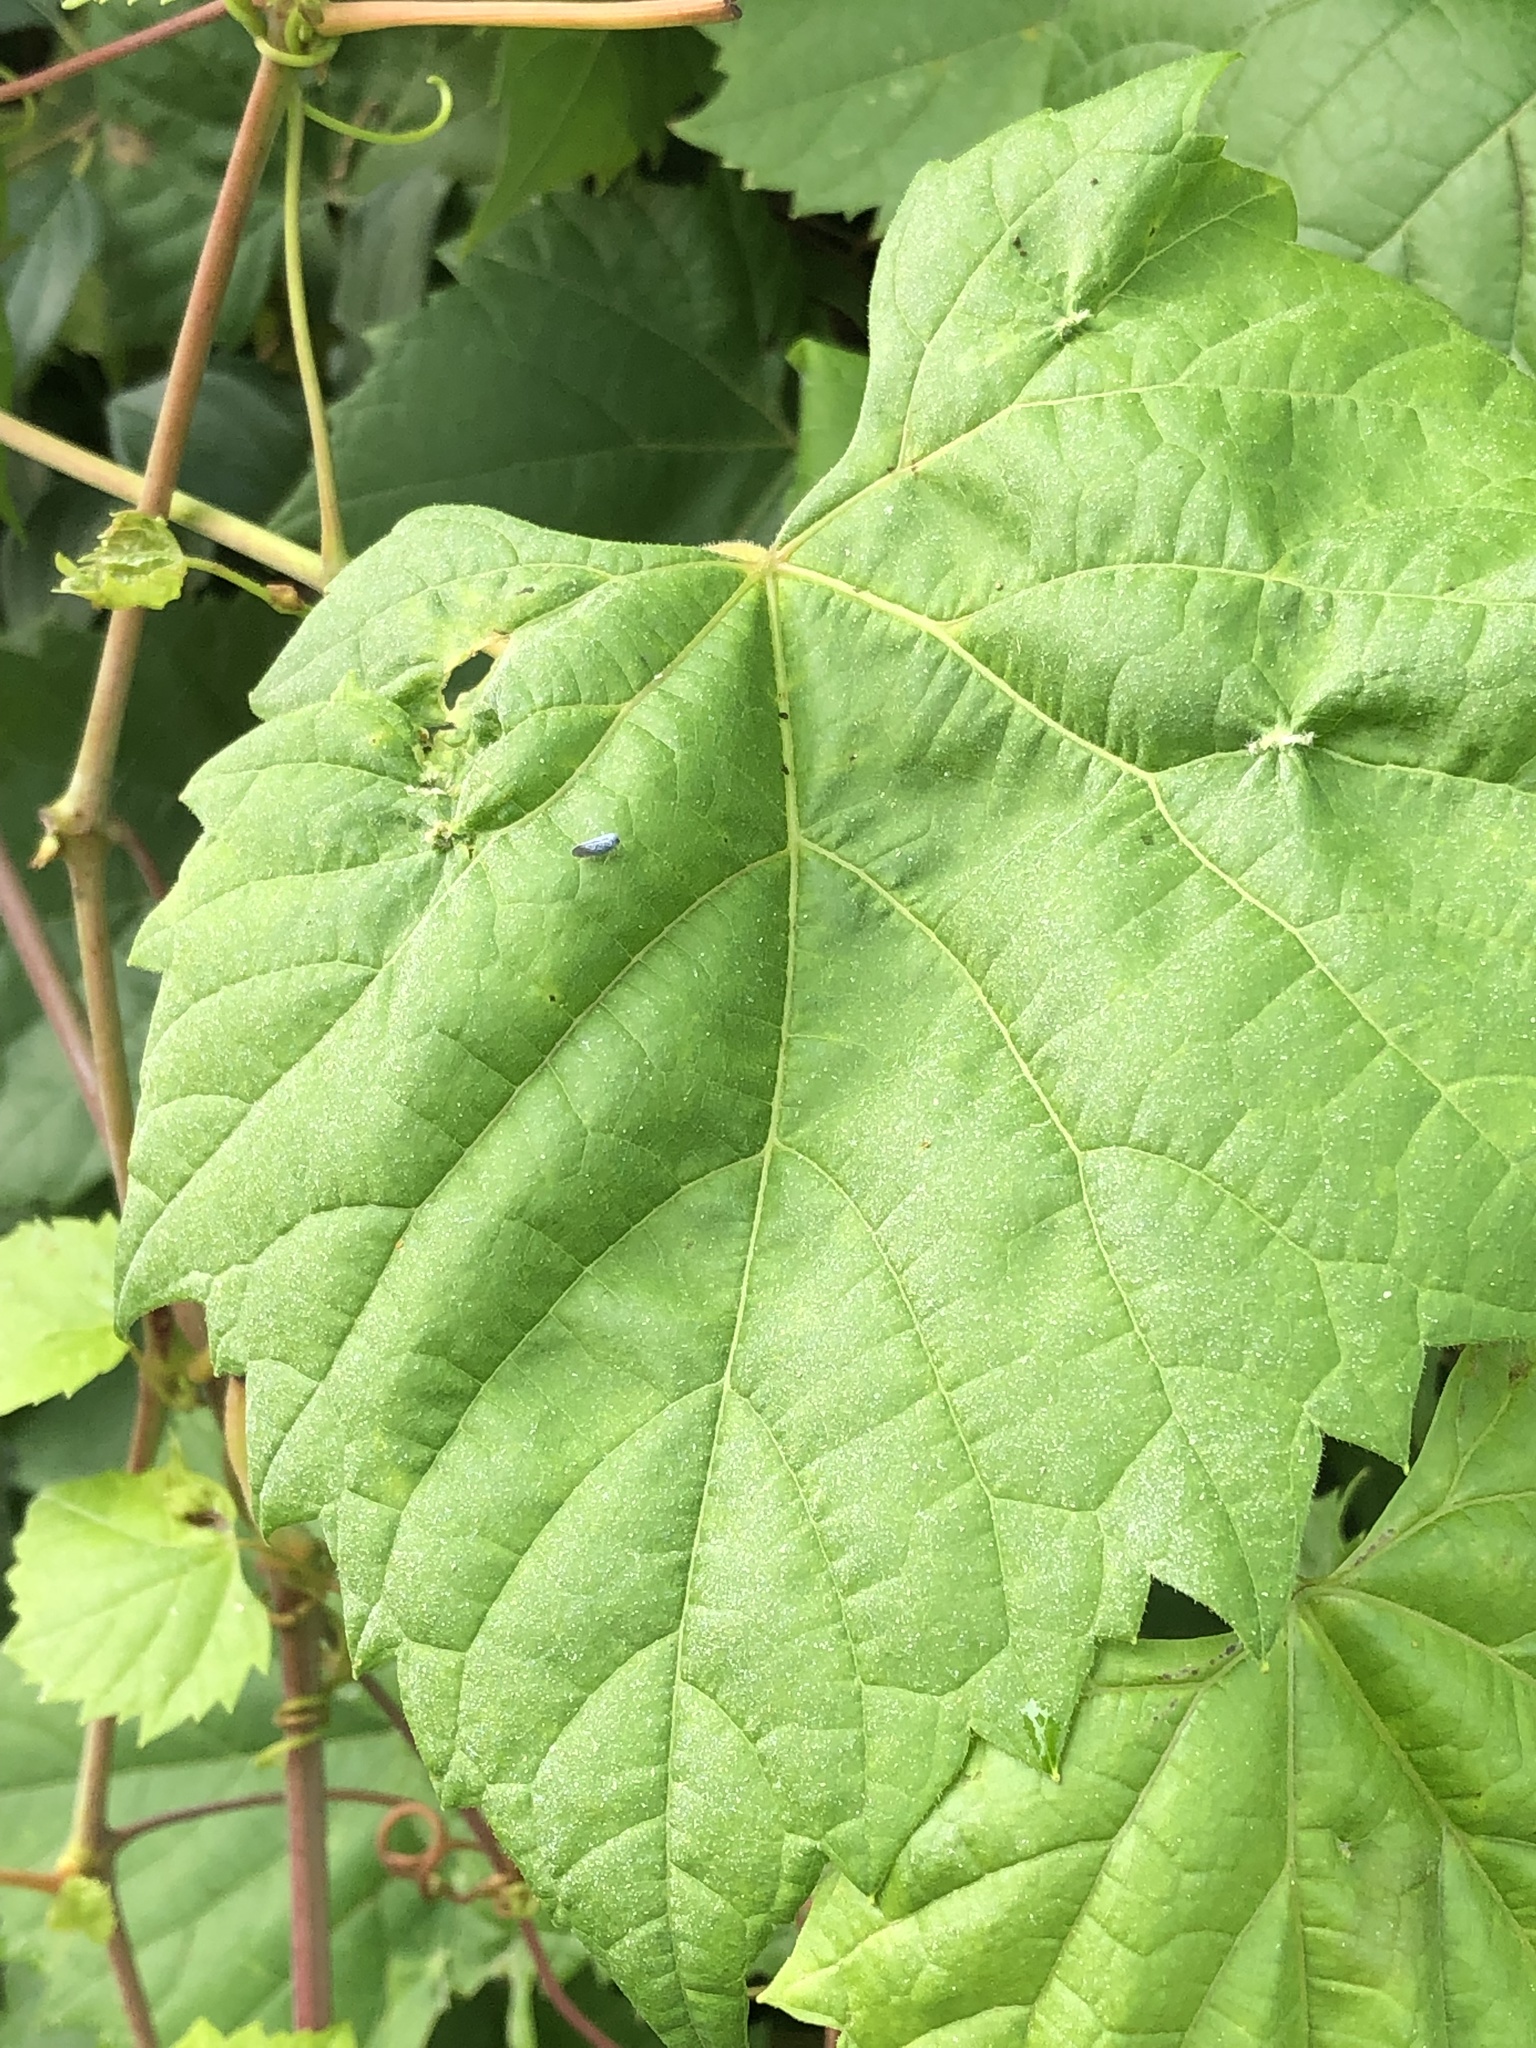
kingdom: Plantae
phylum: Tracheophyta
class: Magnoliopsida
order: Vitales
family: Vitaceae
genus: Vitis
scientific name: Vitis riparia
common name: Frost grape
